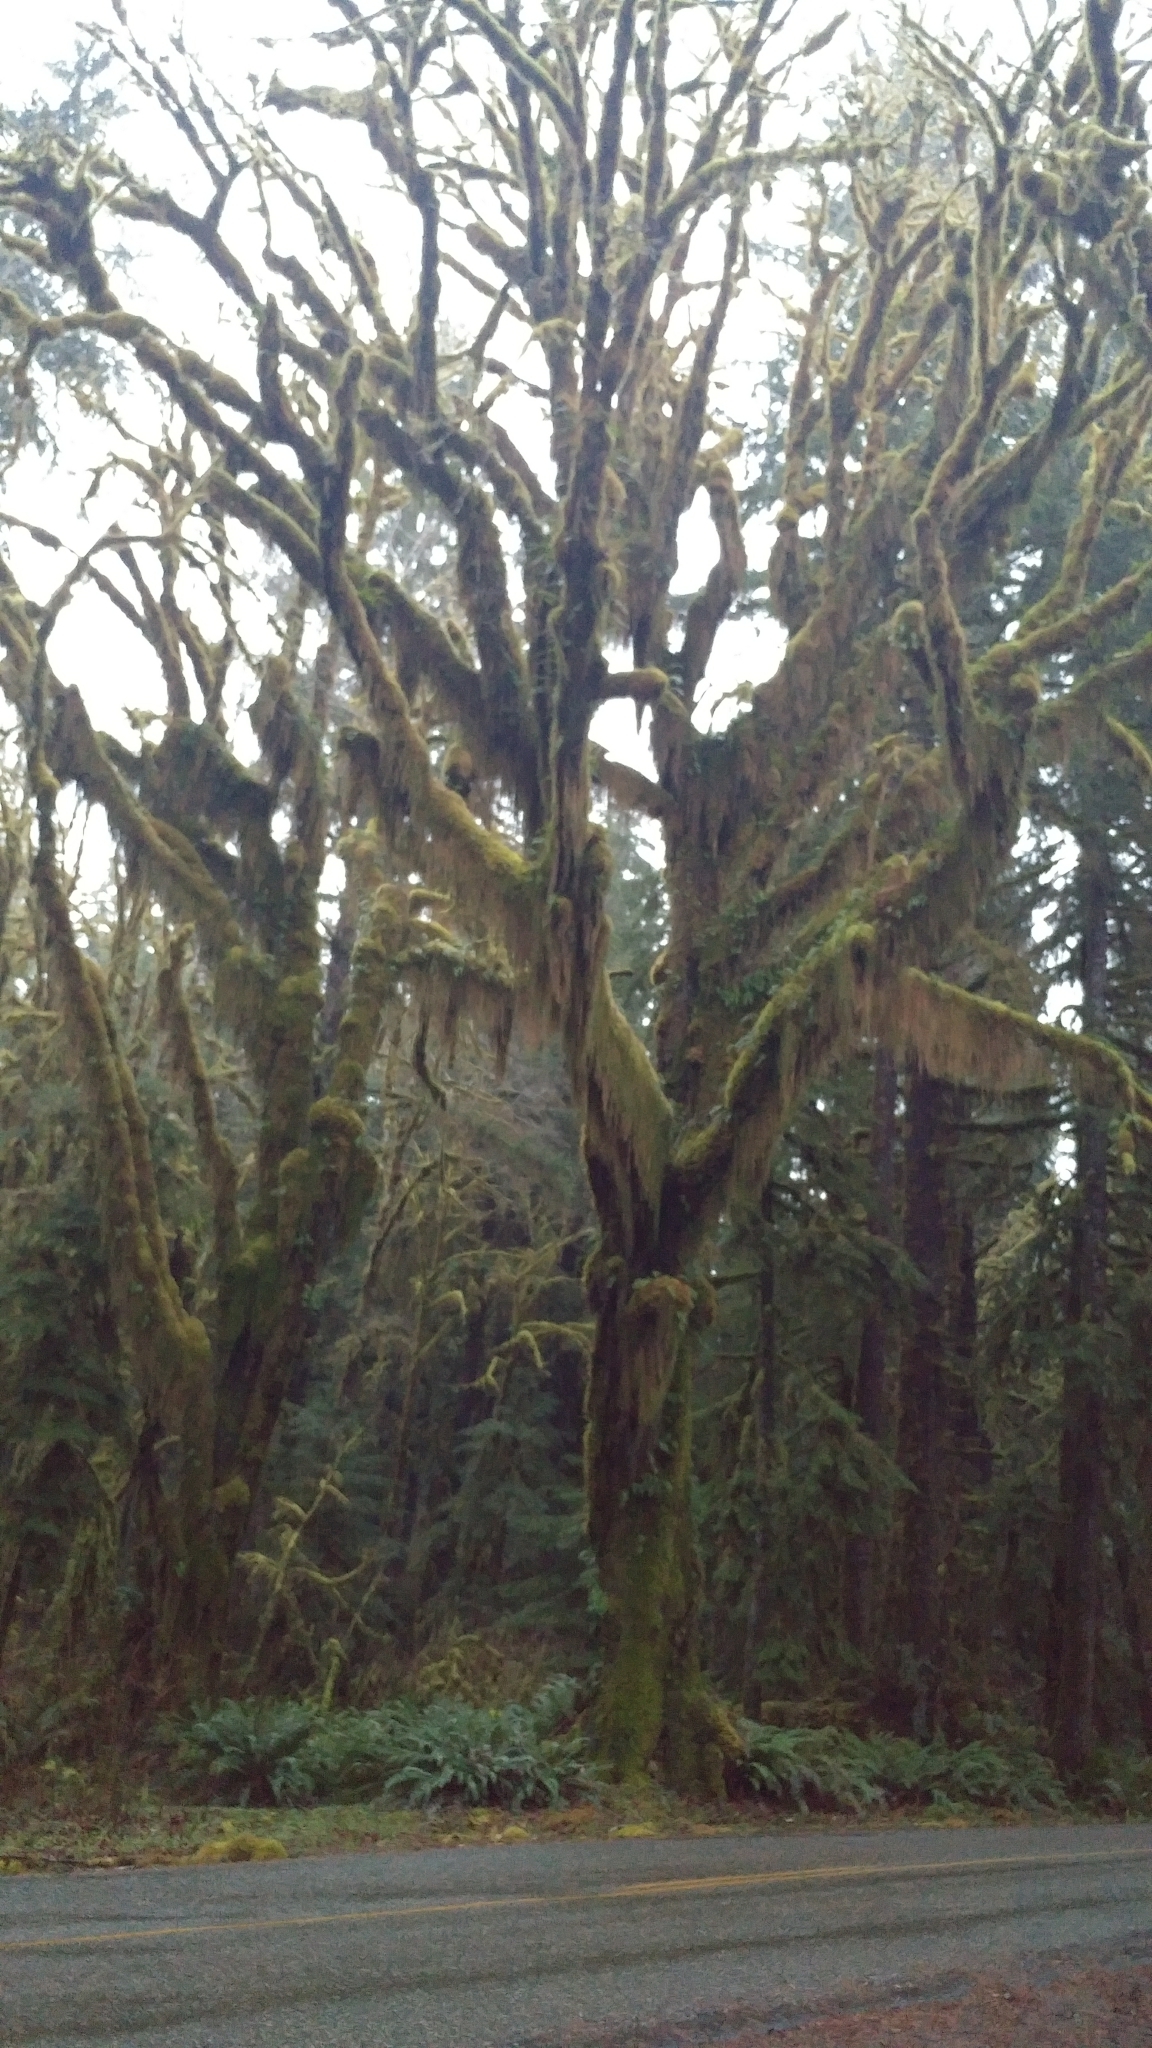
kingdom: Plantae
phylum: Tracheophyta
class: Magnoliopsida
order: Sapindales
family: Sapindaceae
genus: Acer
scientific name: Acer macrophyllum
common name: Oregon maple
